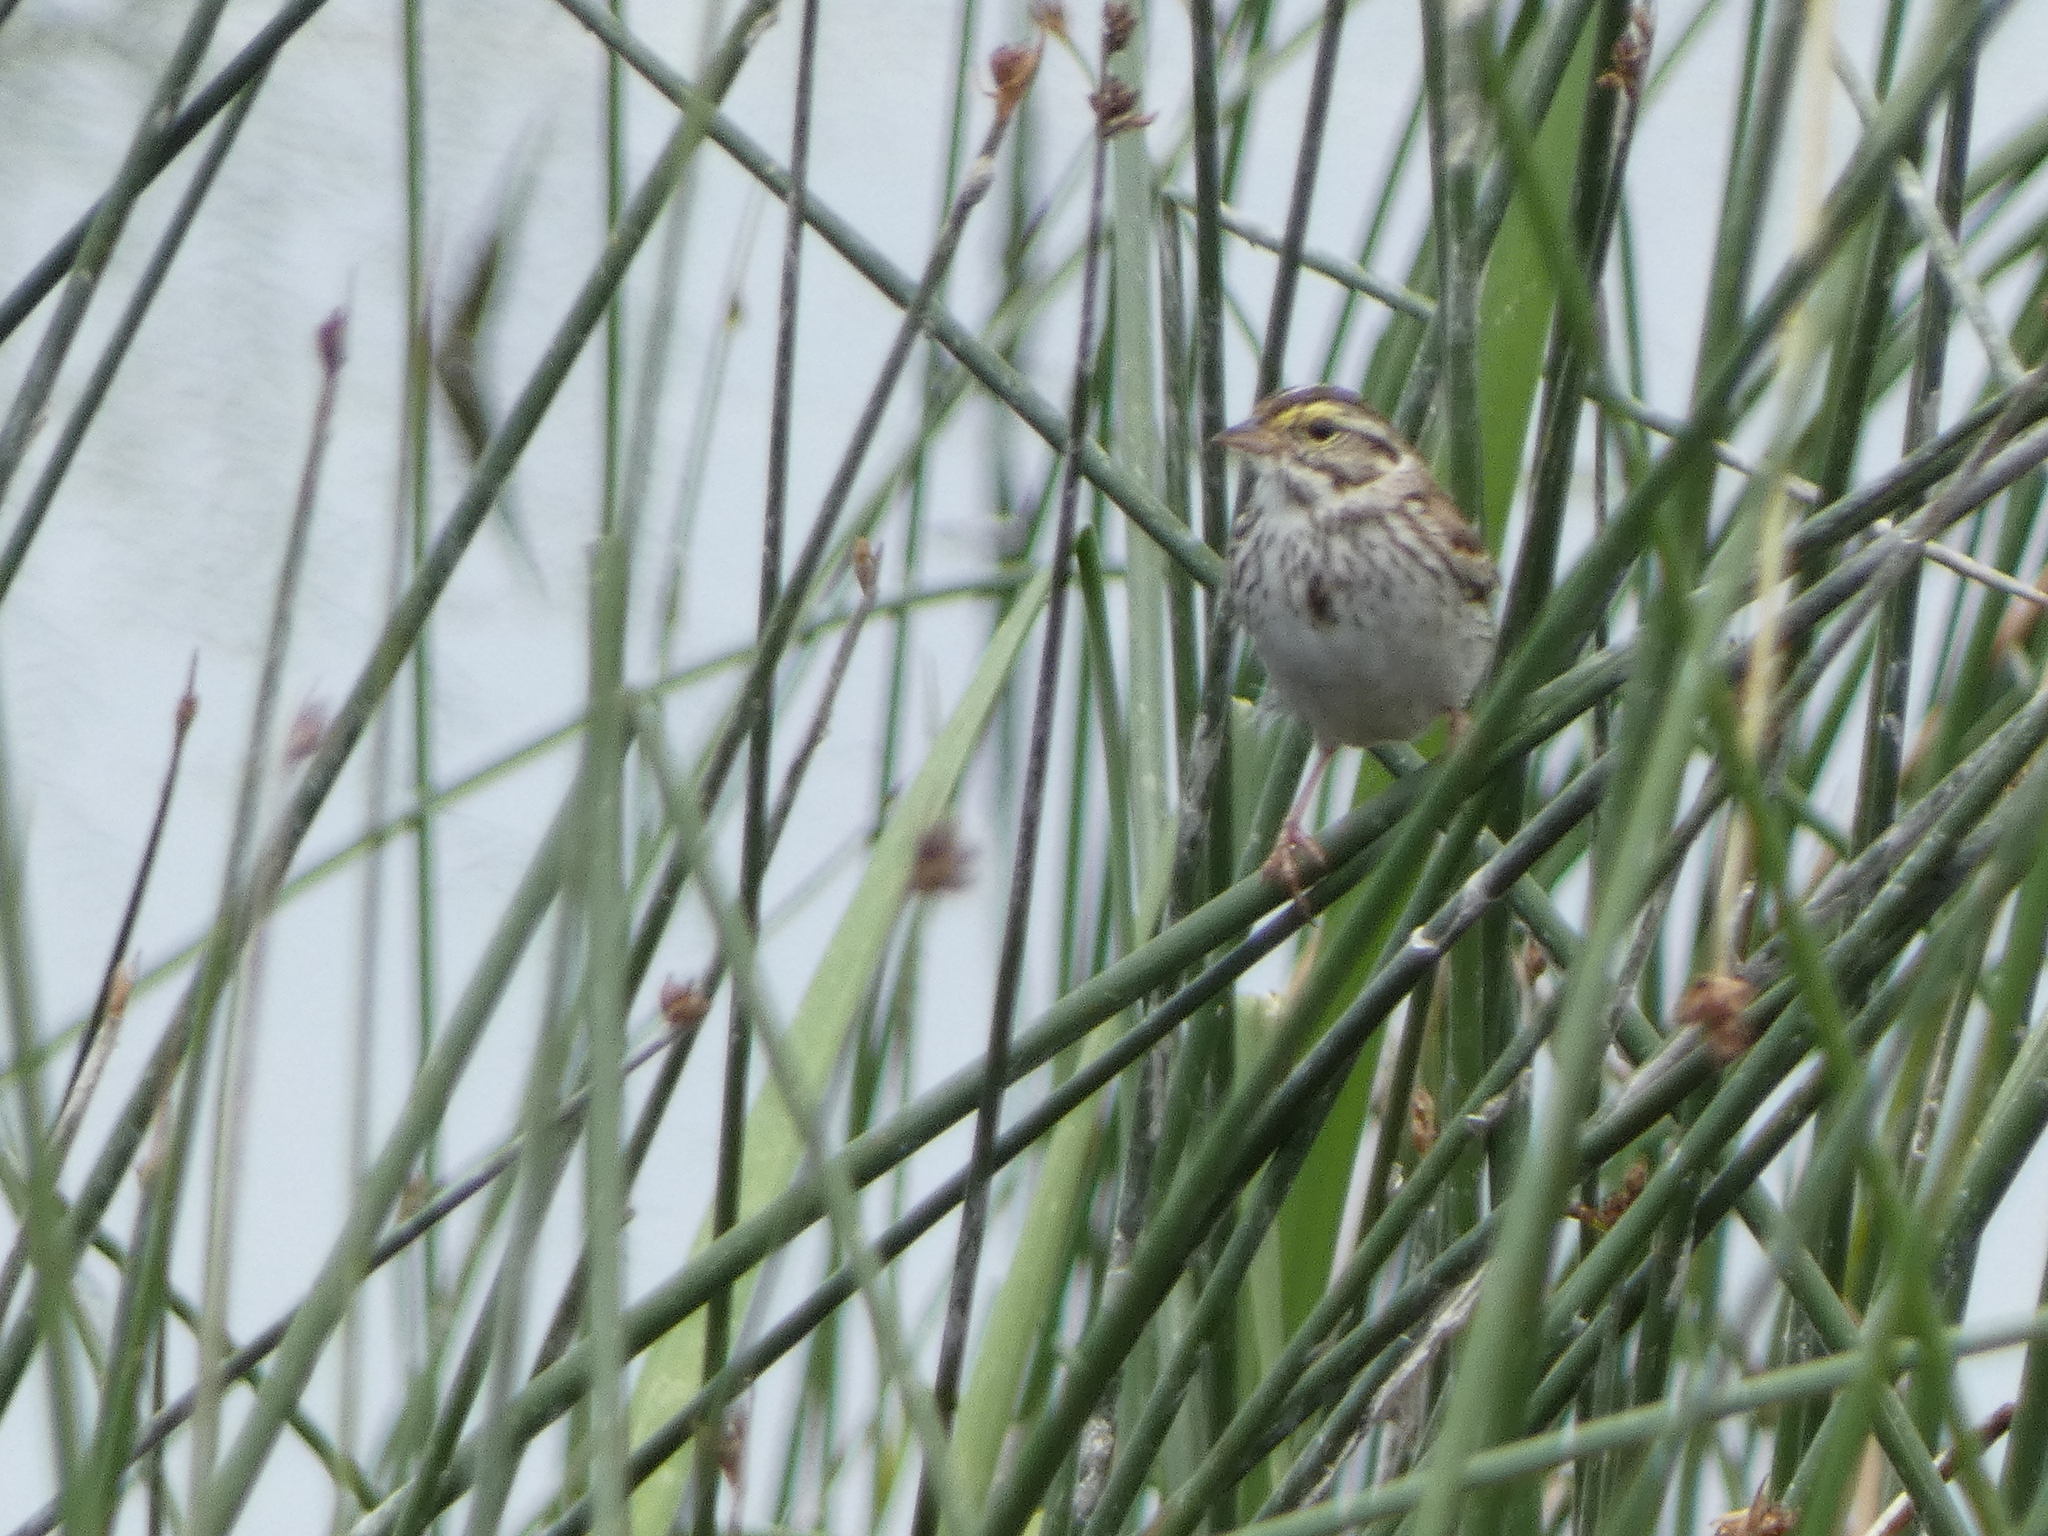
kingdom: Animalia
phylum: Chordata
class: Aves
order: Passeriformes
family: Passerellidae
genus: Passerculus
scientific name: Passerculus sandwichensis
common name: Savannah sparrow
